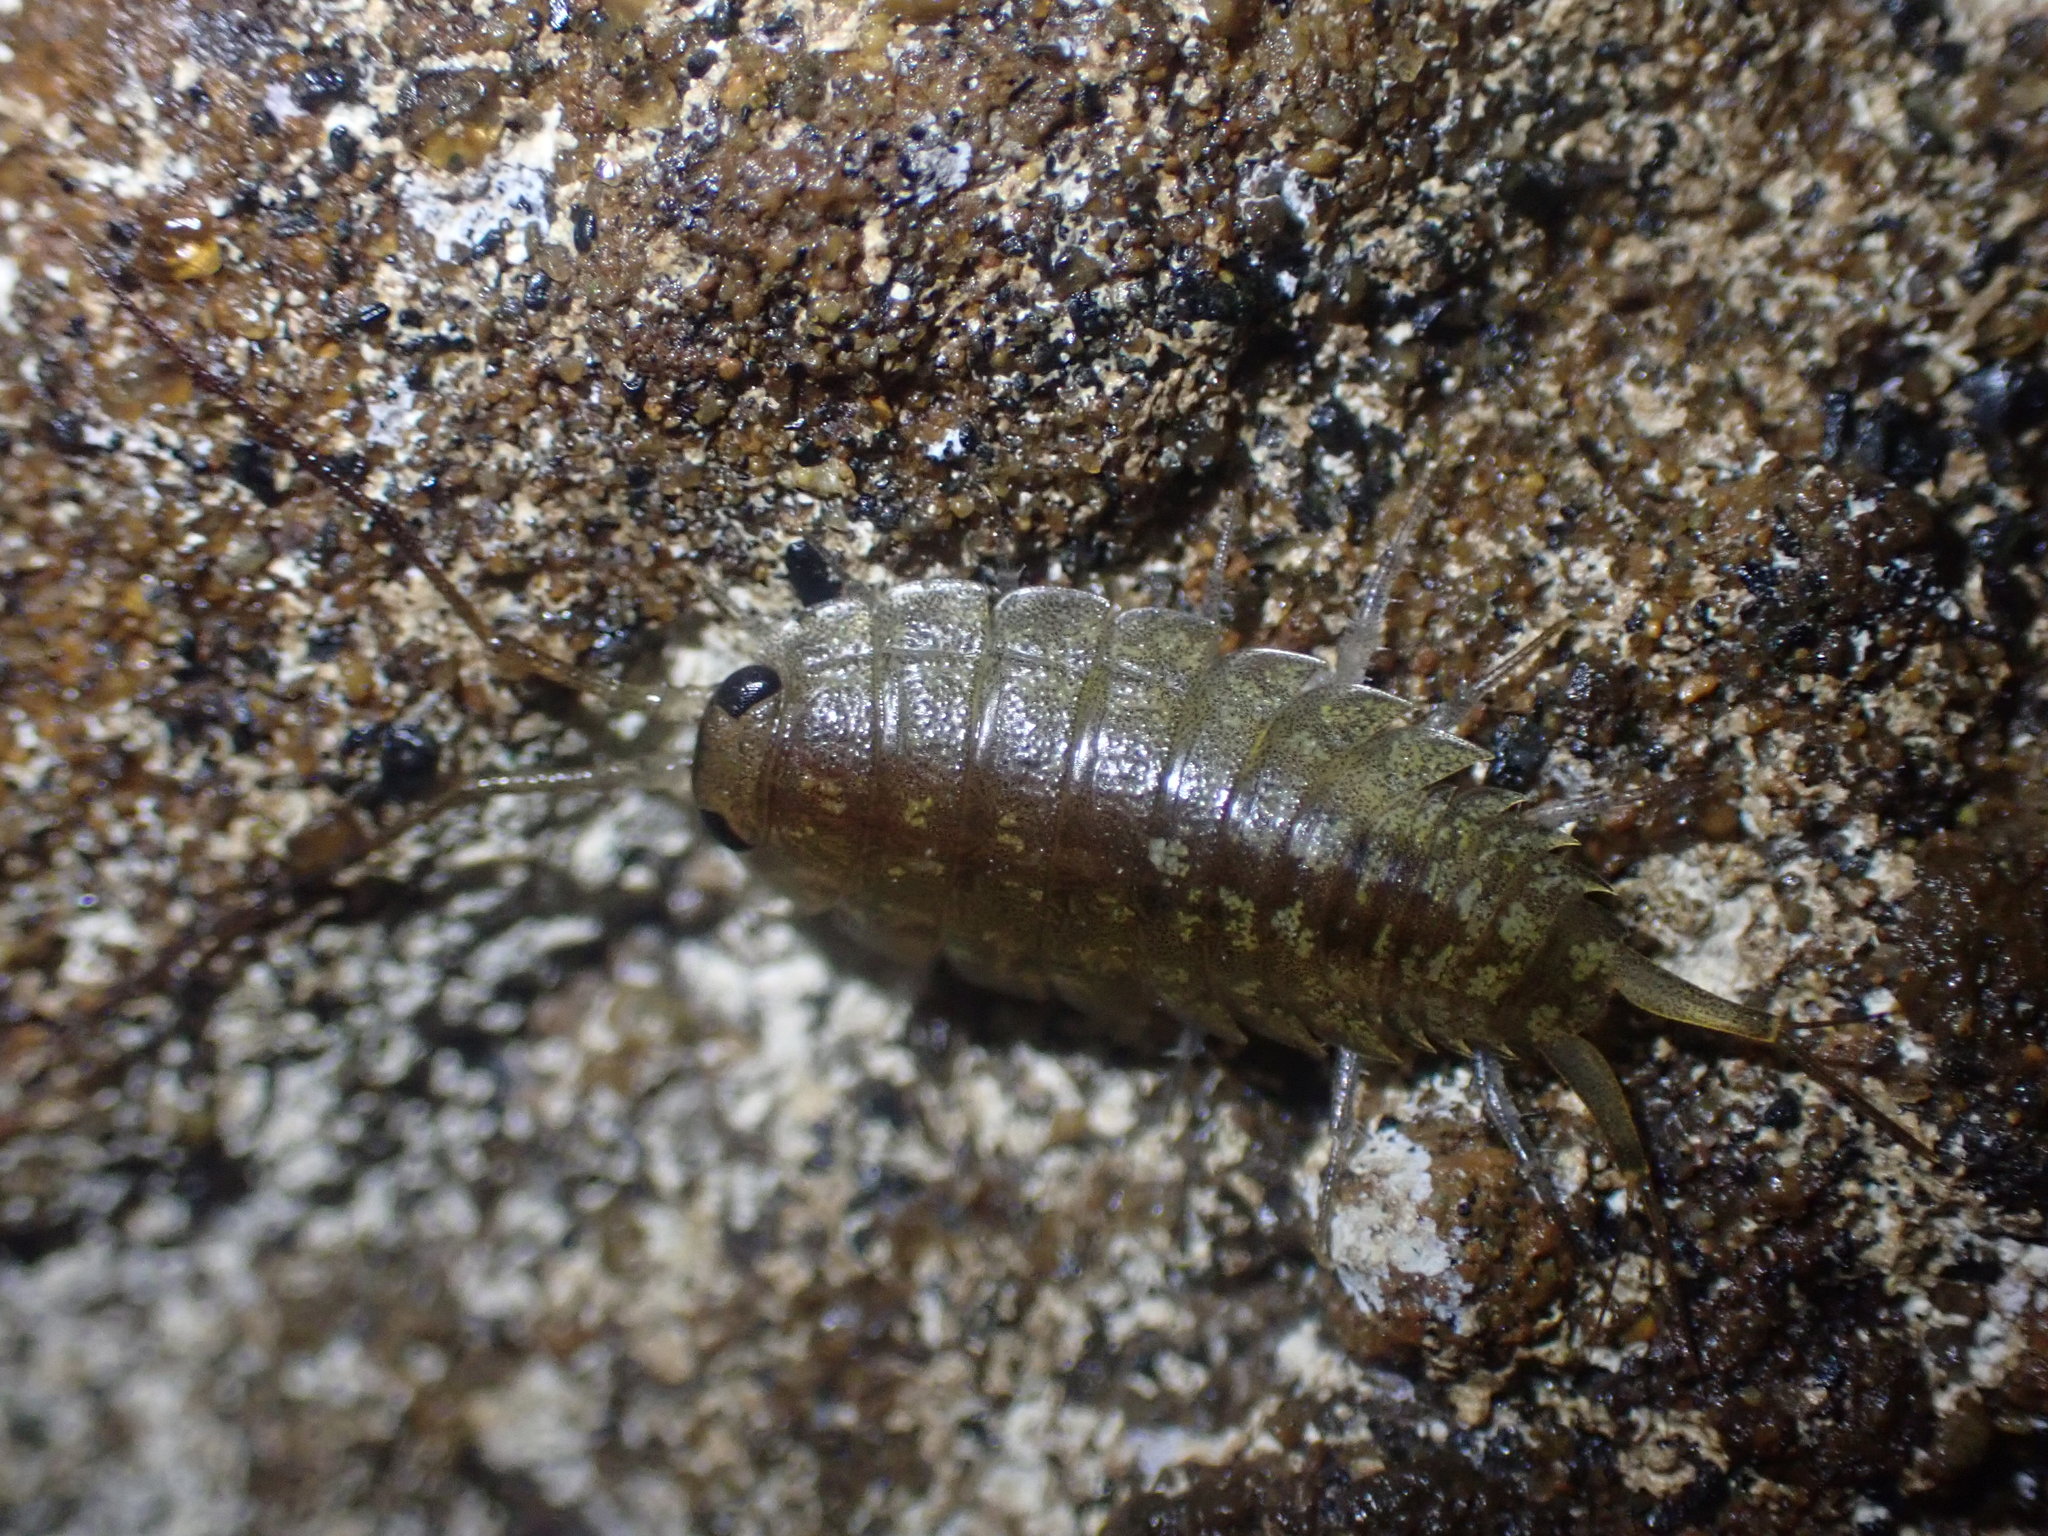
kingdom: Animalia
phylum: Arthropoda
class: Malacostraca
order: Isopoda
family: Ligiidae
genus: Ligia
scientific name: Ligia novizealandiae
